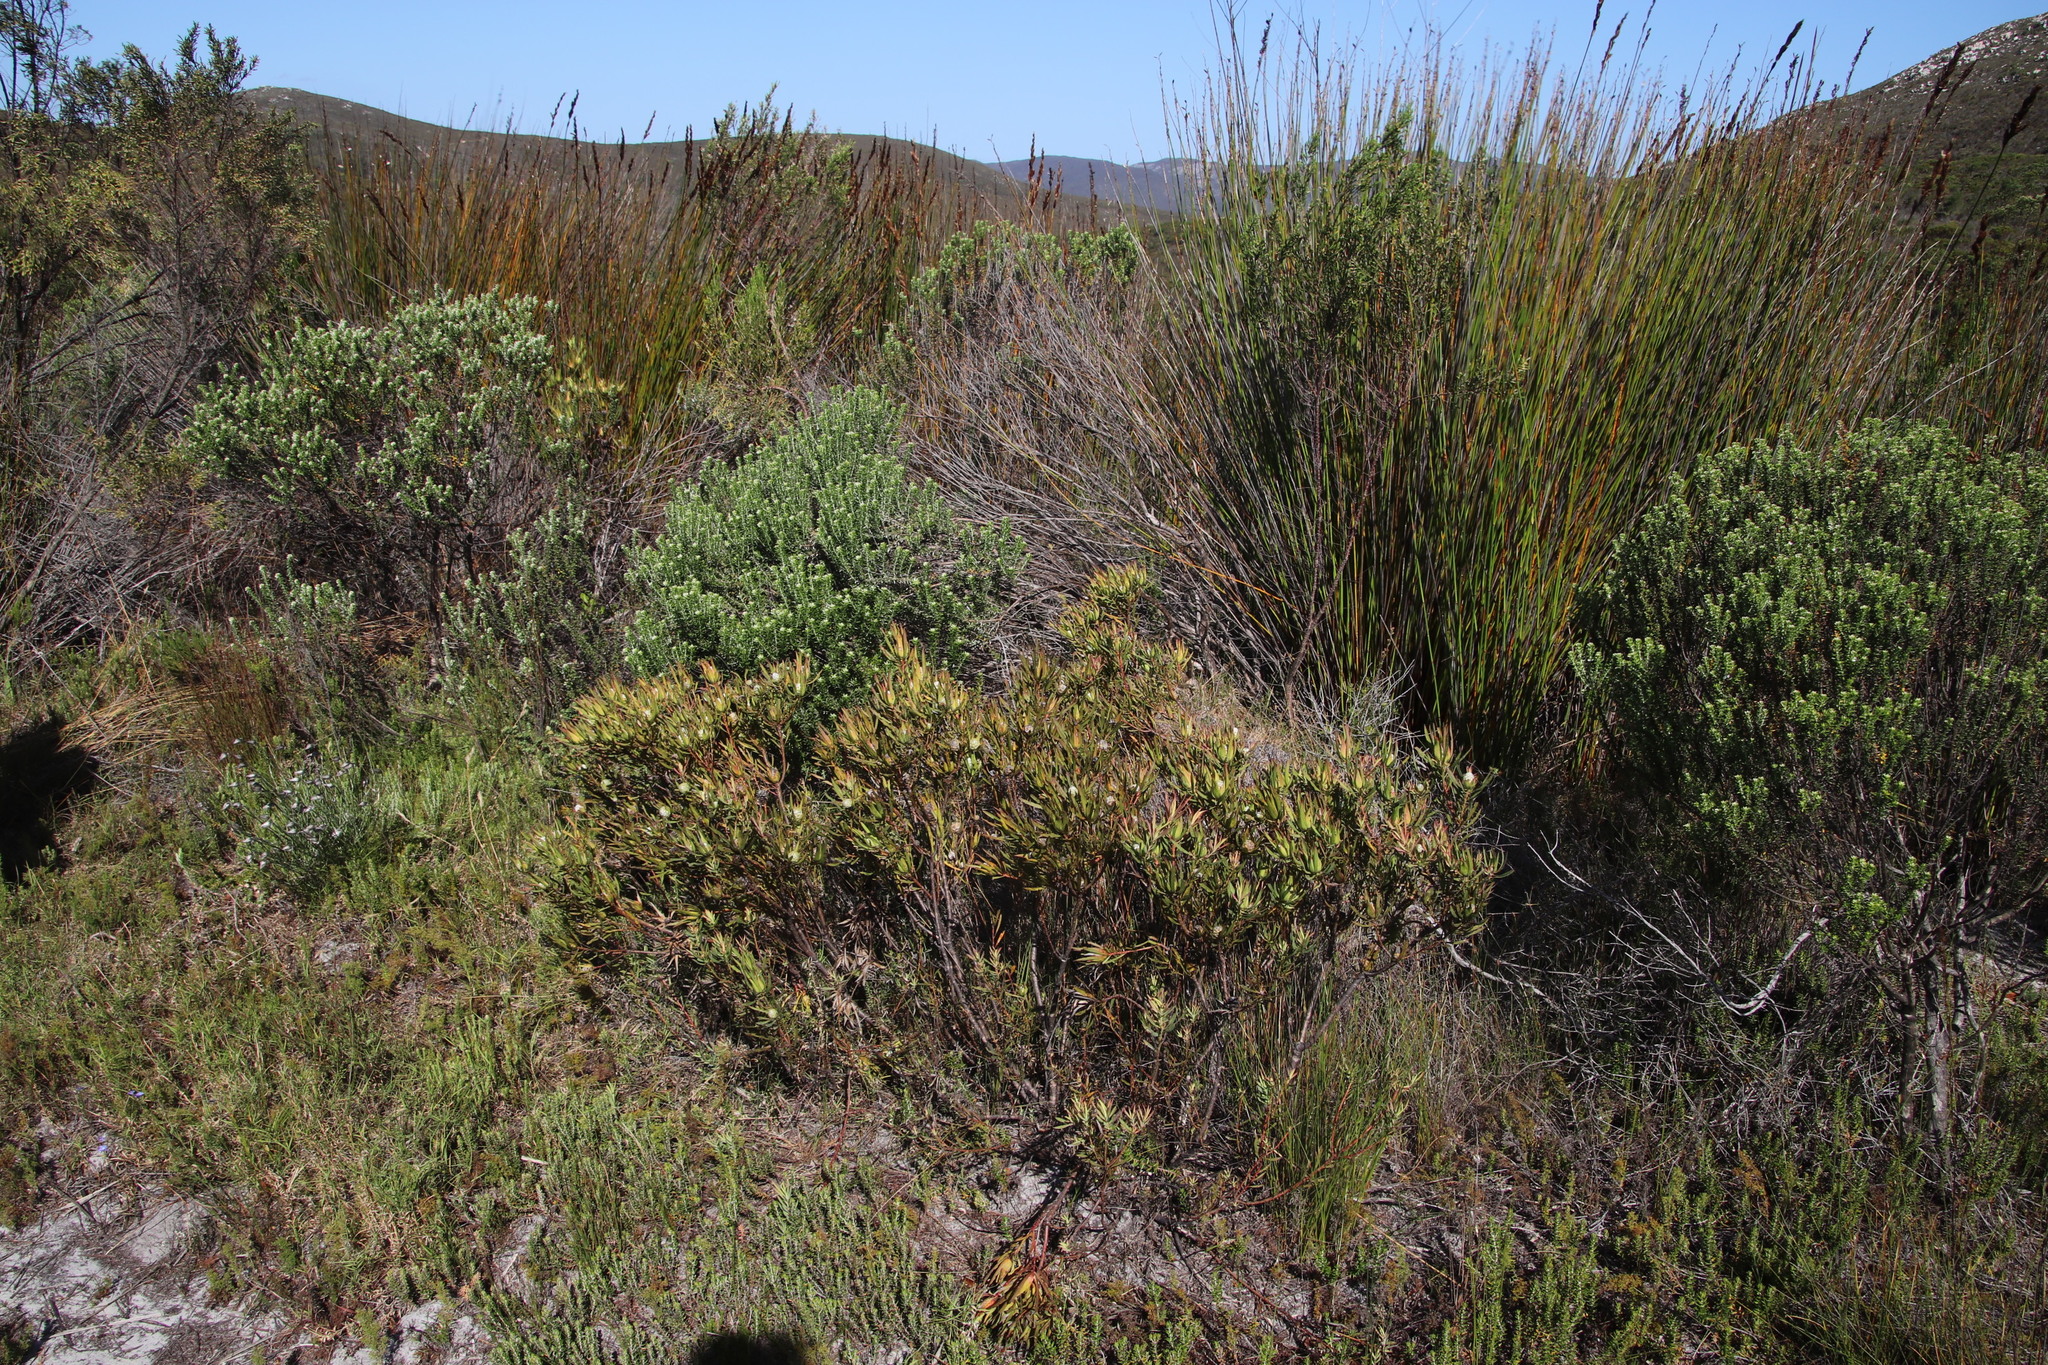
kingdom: Plantae
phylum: Tracheophyta
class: Magnoliopsida
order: Proteales
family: Proteaceae
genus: Leucadendron
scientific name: Leucadendron salignum
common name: Common sunshine conebush
